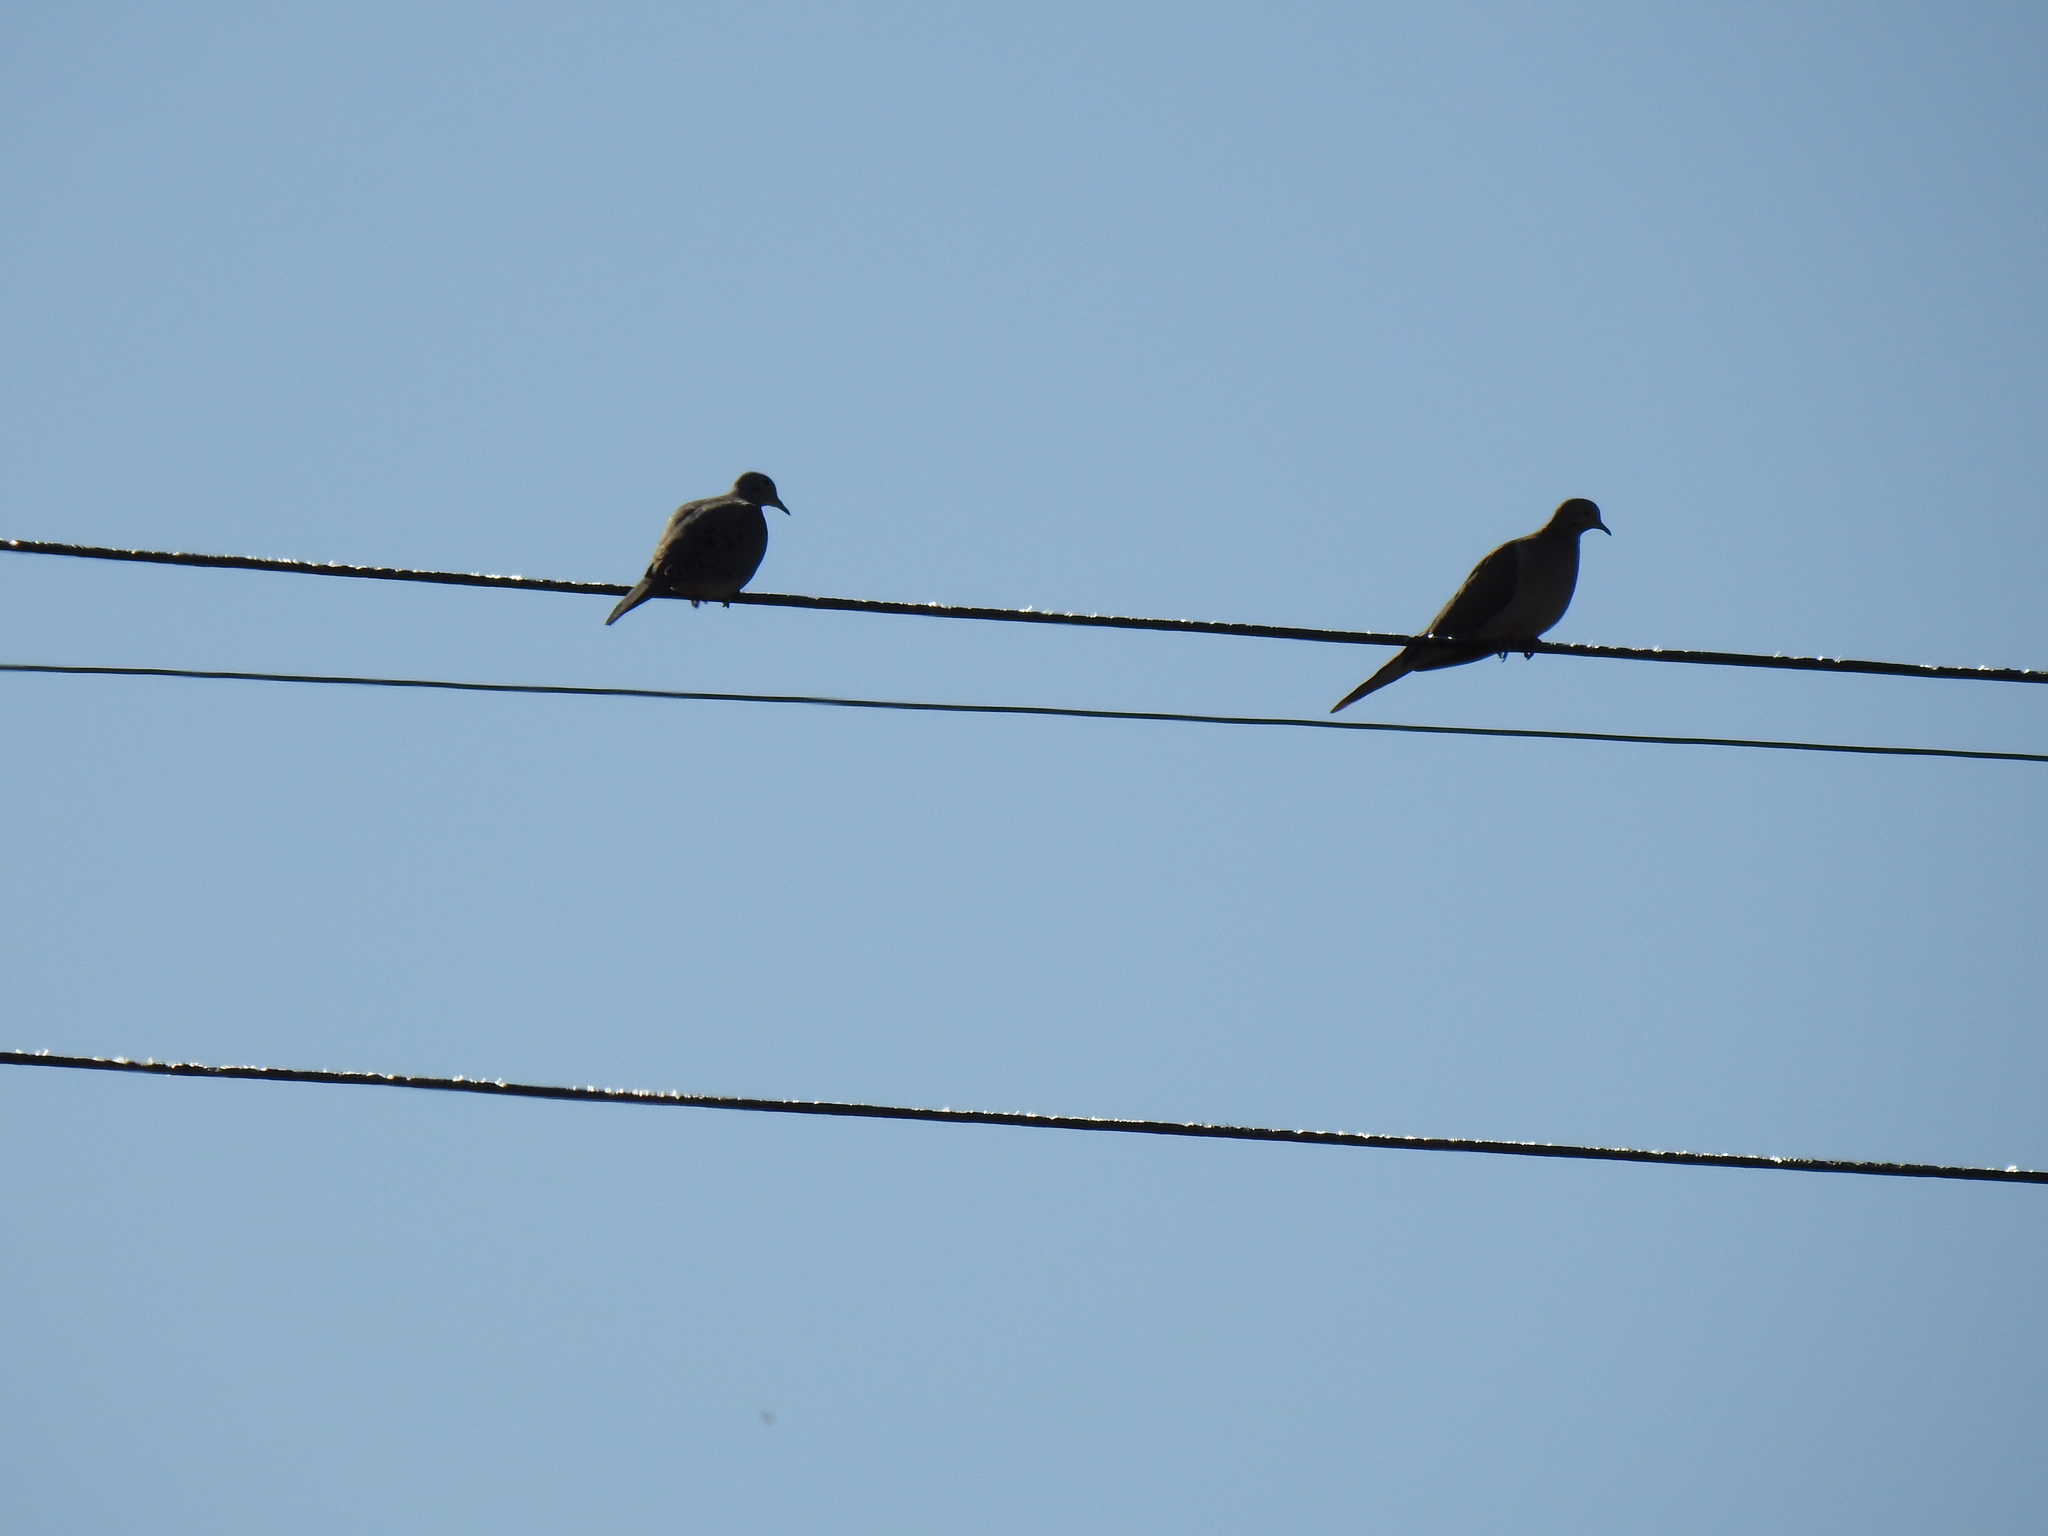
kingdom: Animalia
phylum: Chordata
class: Aves
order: Columbiformes
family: Columbidae
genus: Zenaida
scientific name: Zenaida macroura
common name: Mourning dove
